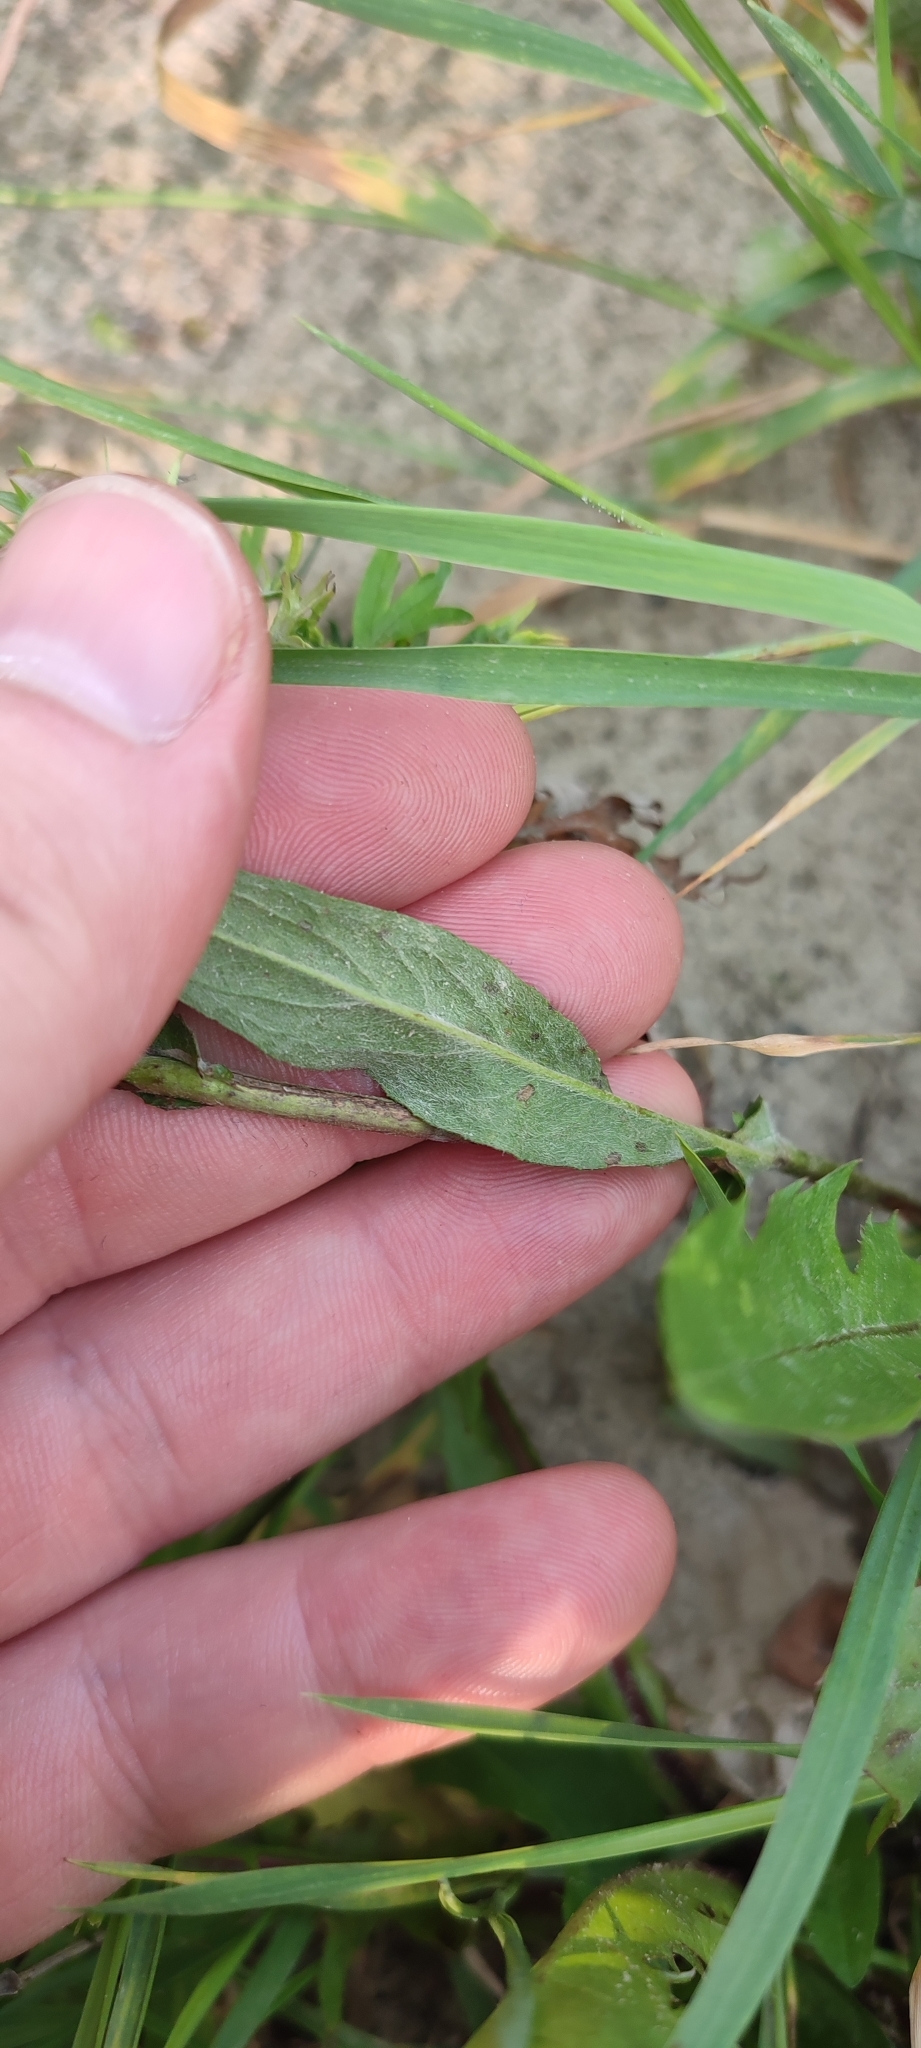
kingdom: Plantae
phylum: Tracheophyta
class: Magnoliopsida
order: Asterales
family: Asteraceae
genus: Pentanema
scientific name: Pentanema britannicum
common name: British elecampane
